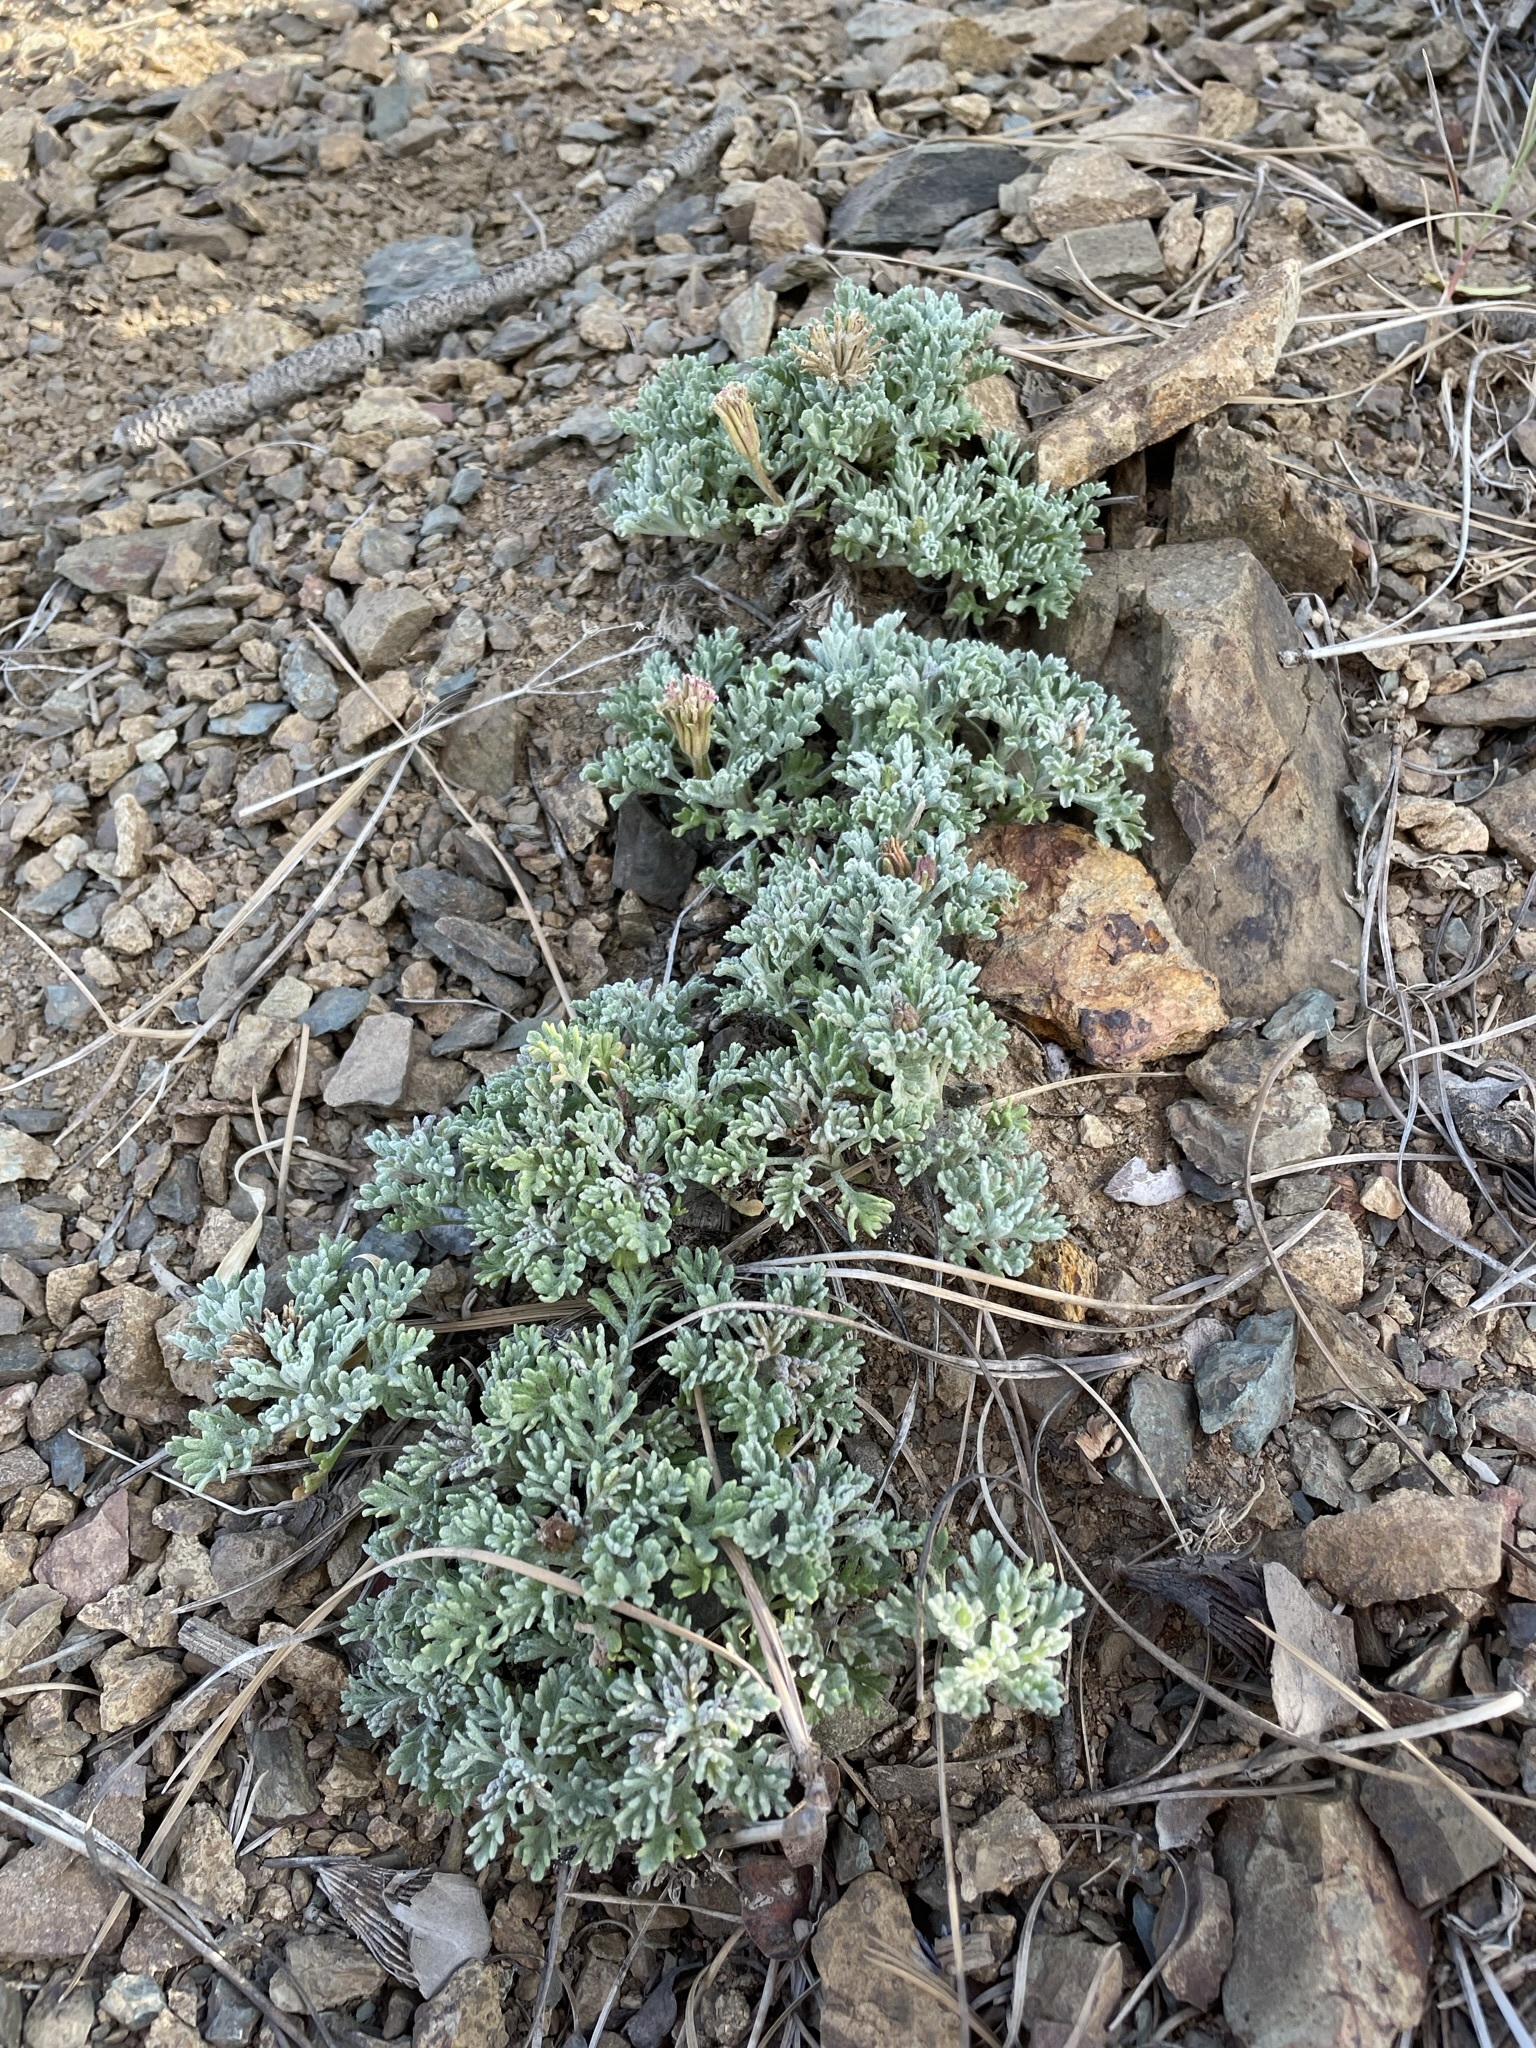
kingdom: Plantae
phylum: Tracheophyta
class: Magnoliopsida
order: Asterales
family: Asteraceae
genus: Chaenactis
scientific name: Chaenactis nevadensis
